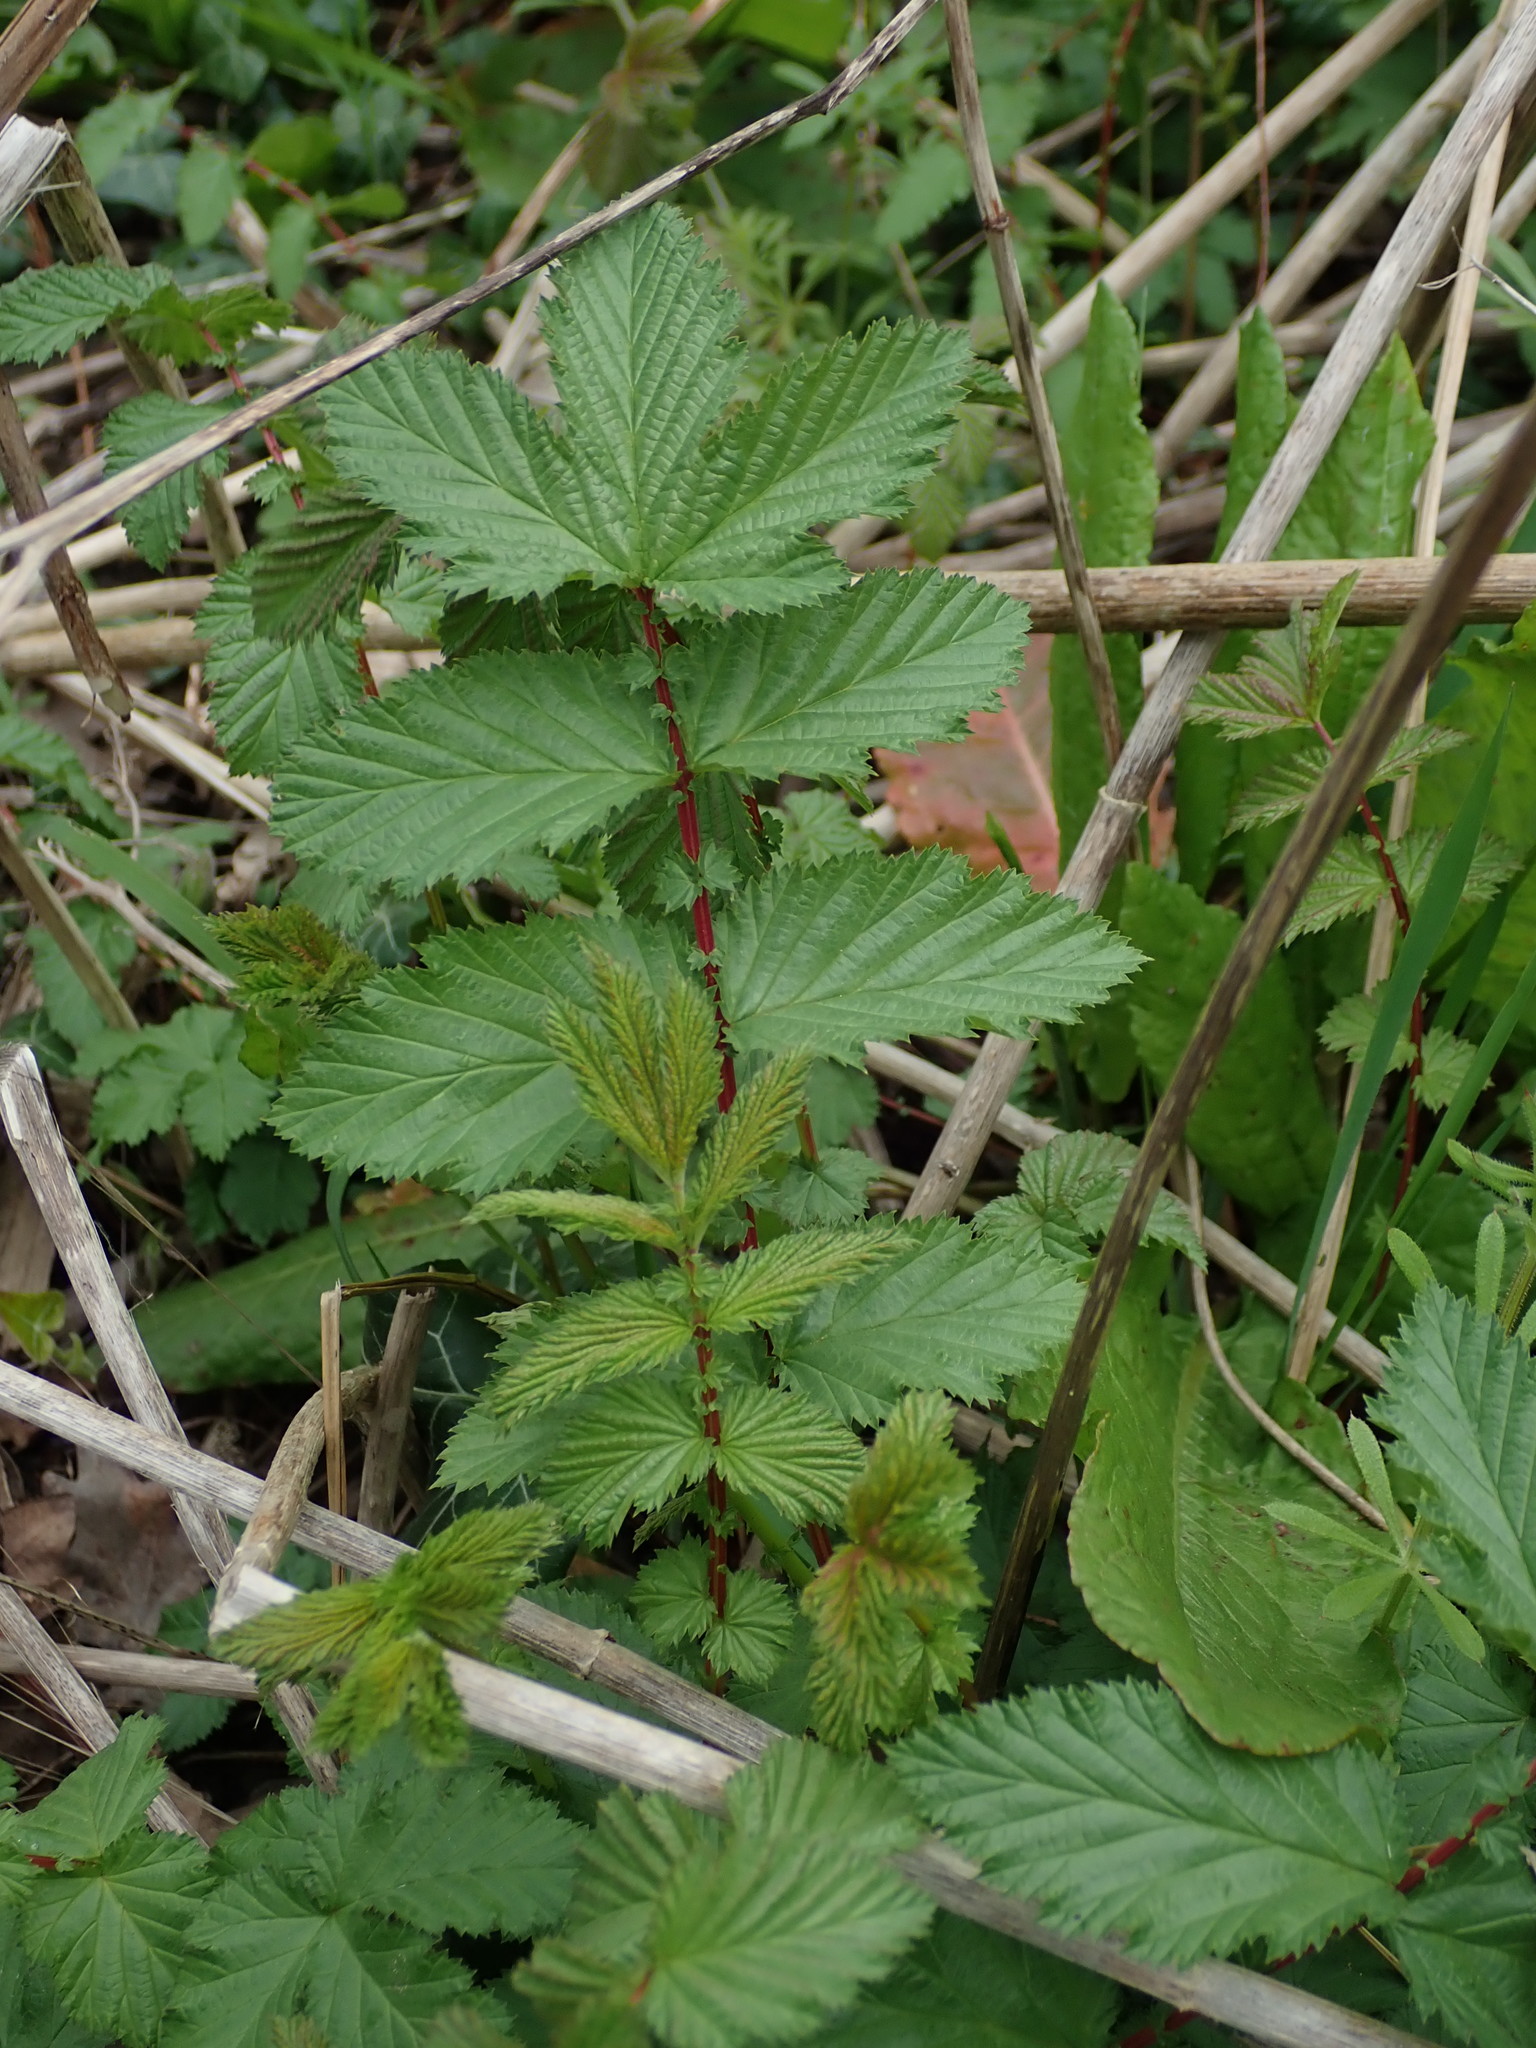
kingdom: Plantae
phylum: Tracheophyta
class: Magnoliopsida
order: Rosales
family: Rosaceae
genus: Filipendula
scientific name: Filipendula ulmaria
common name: Meadowsweet
